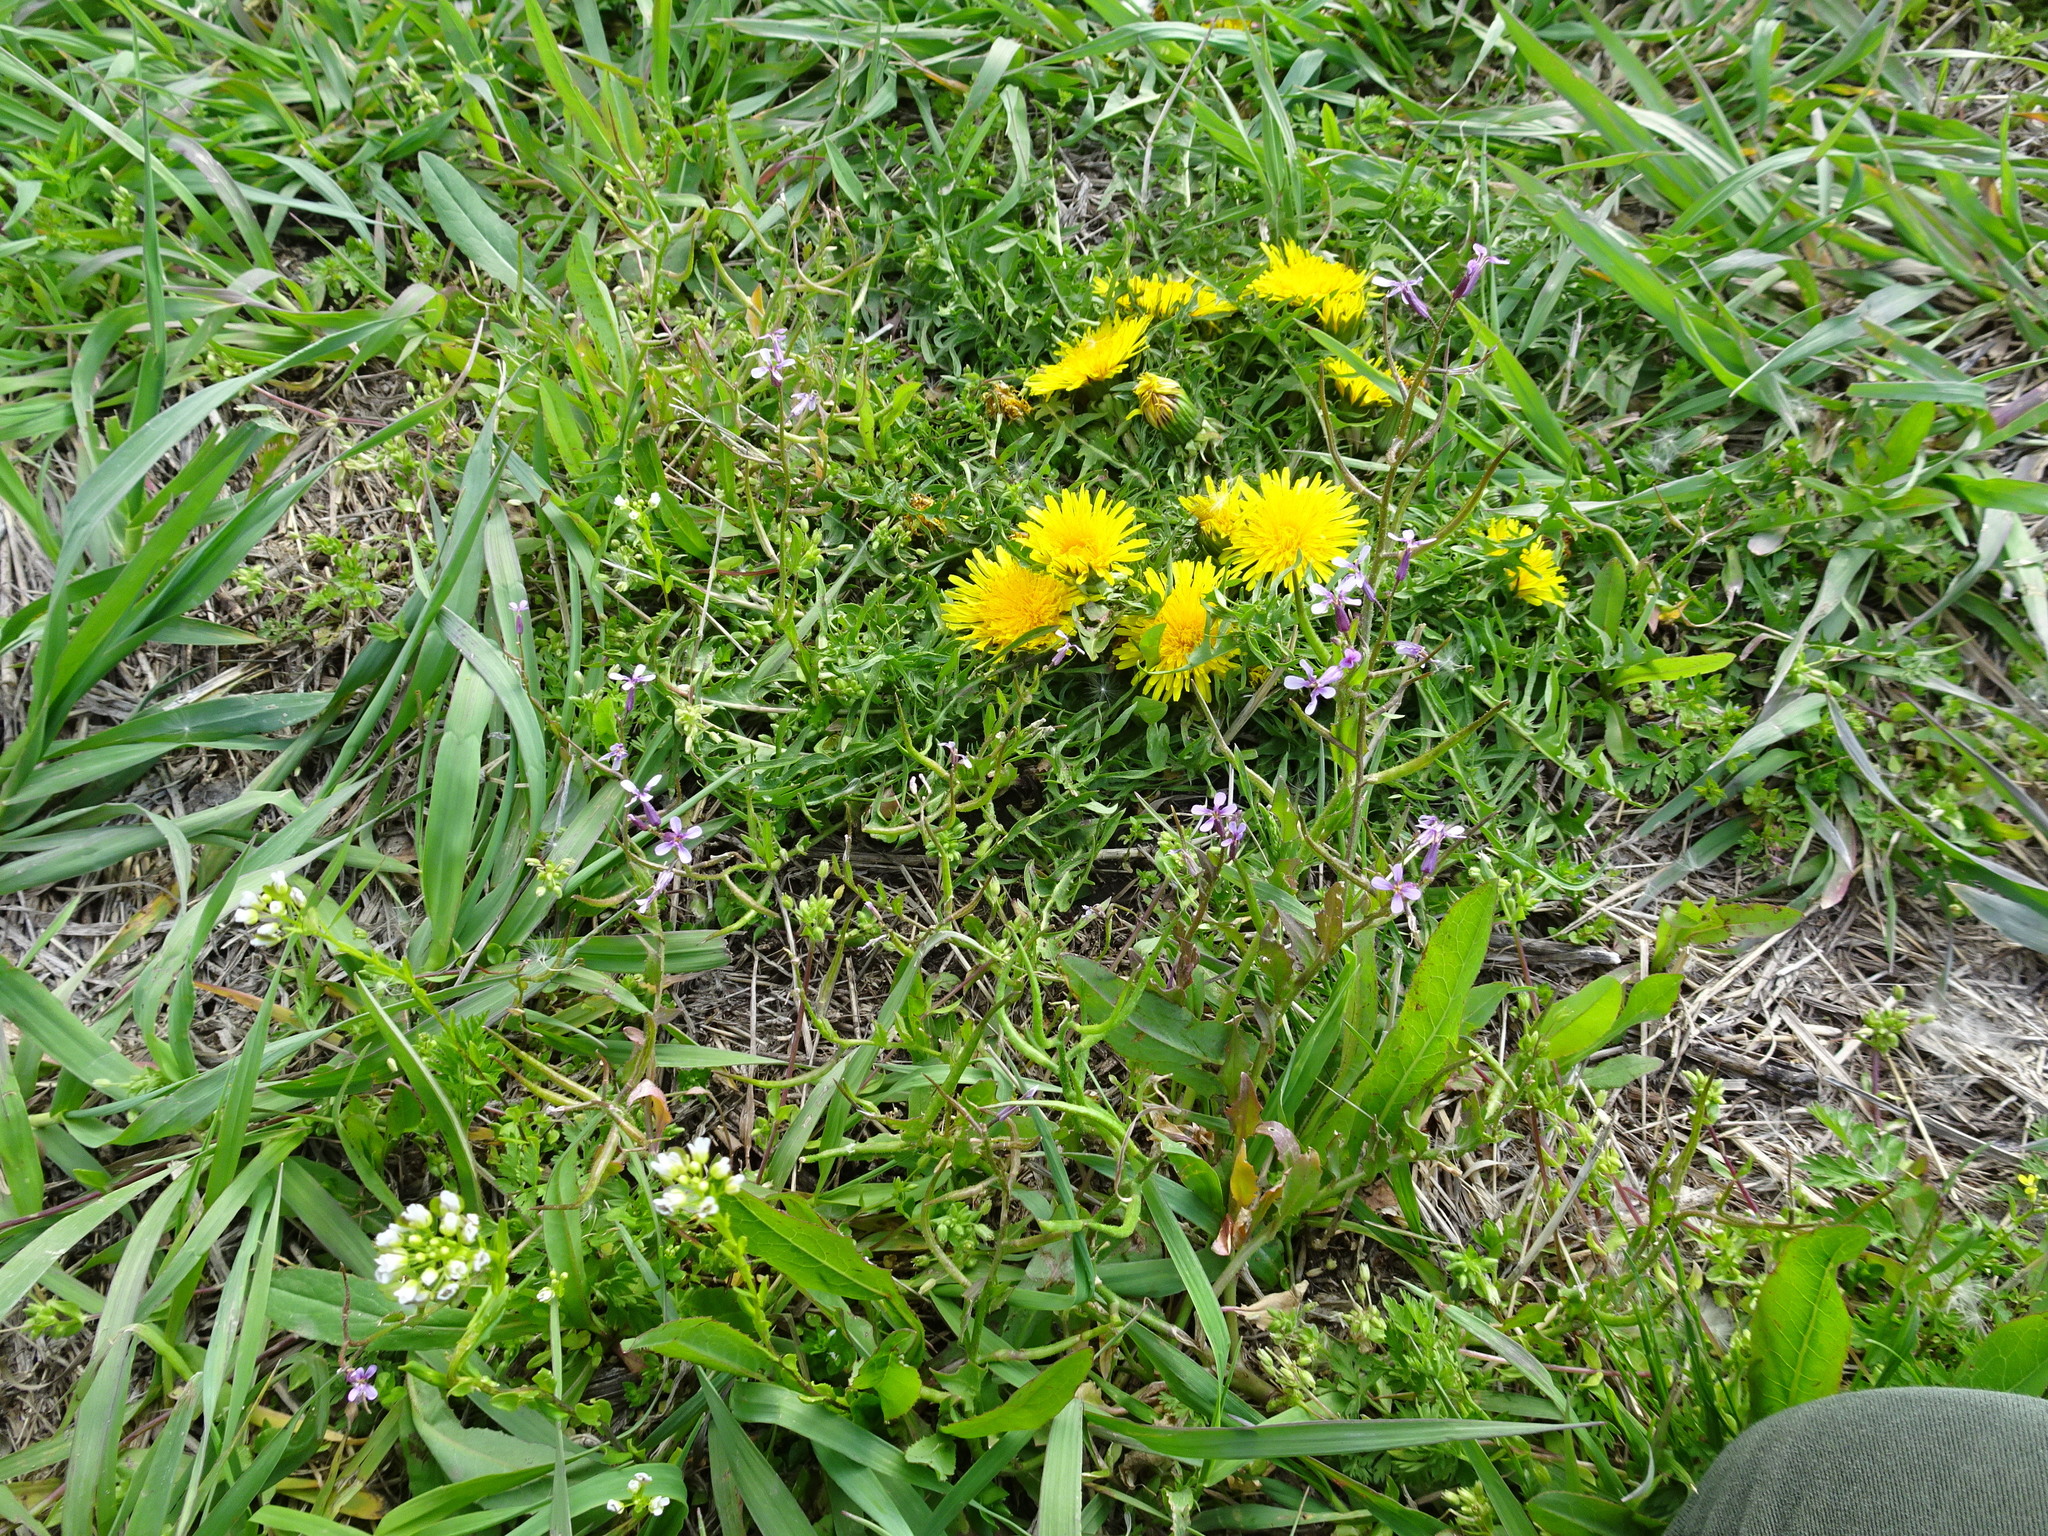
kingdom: Plantae
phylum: Tracheophyta
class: Magnoliopsida
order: Brassicales
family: Brassicaceae
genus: Chorispora
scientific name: Chorispora tenella
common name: Crossflower
